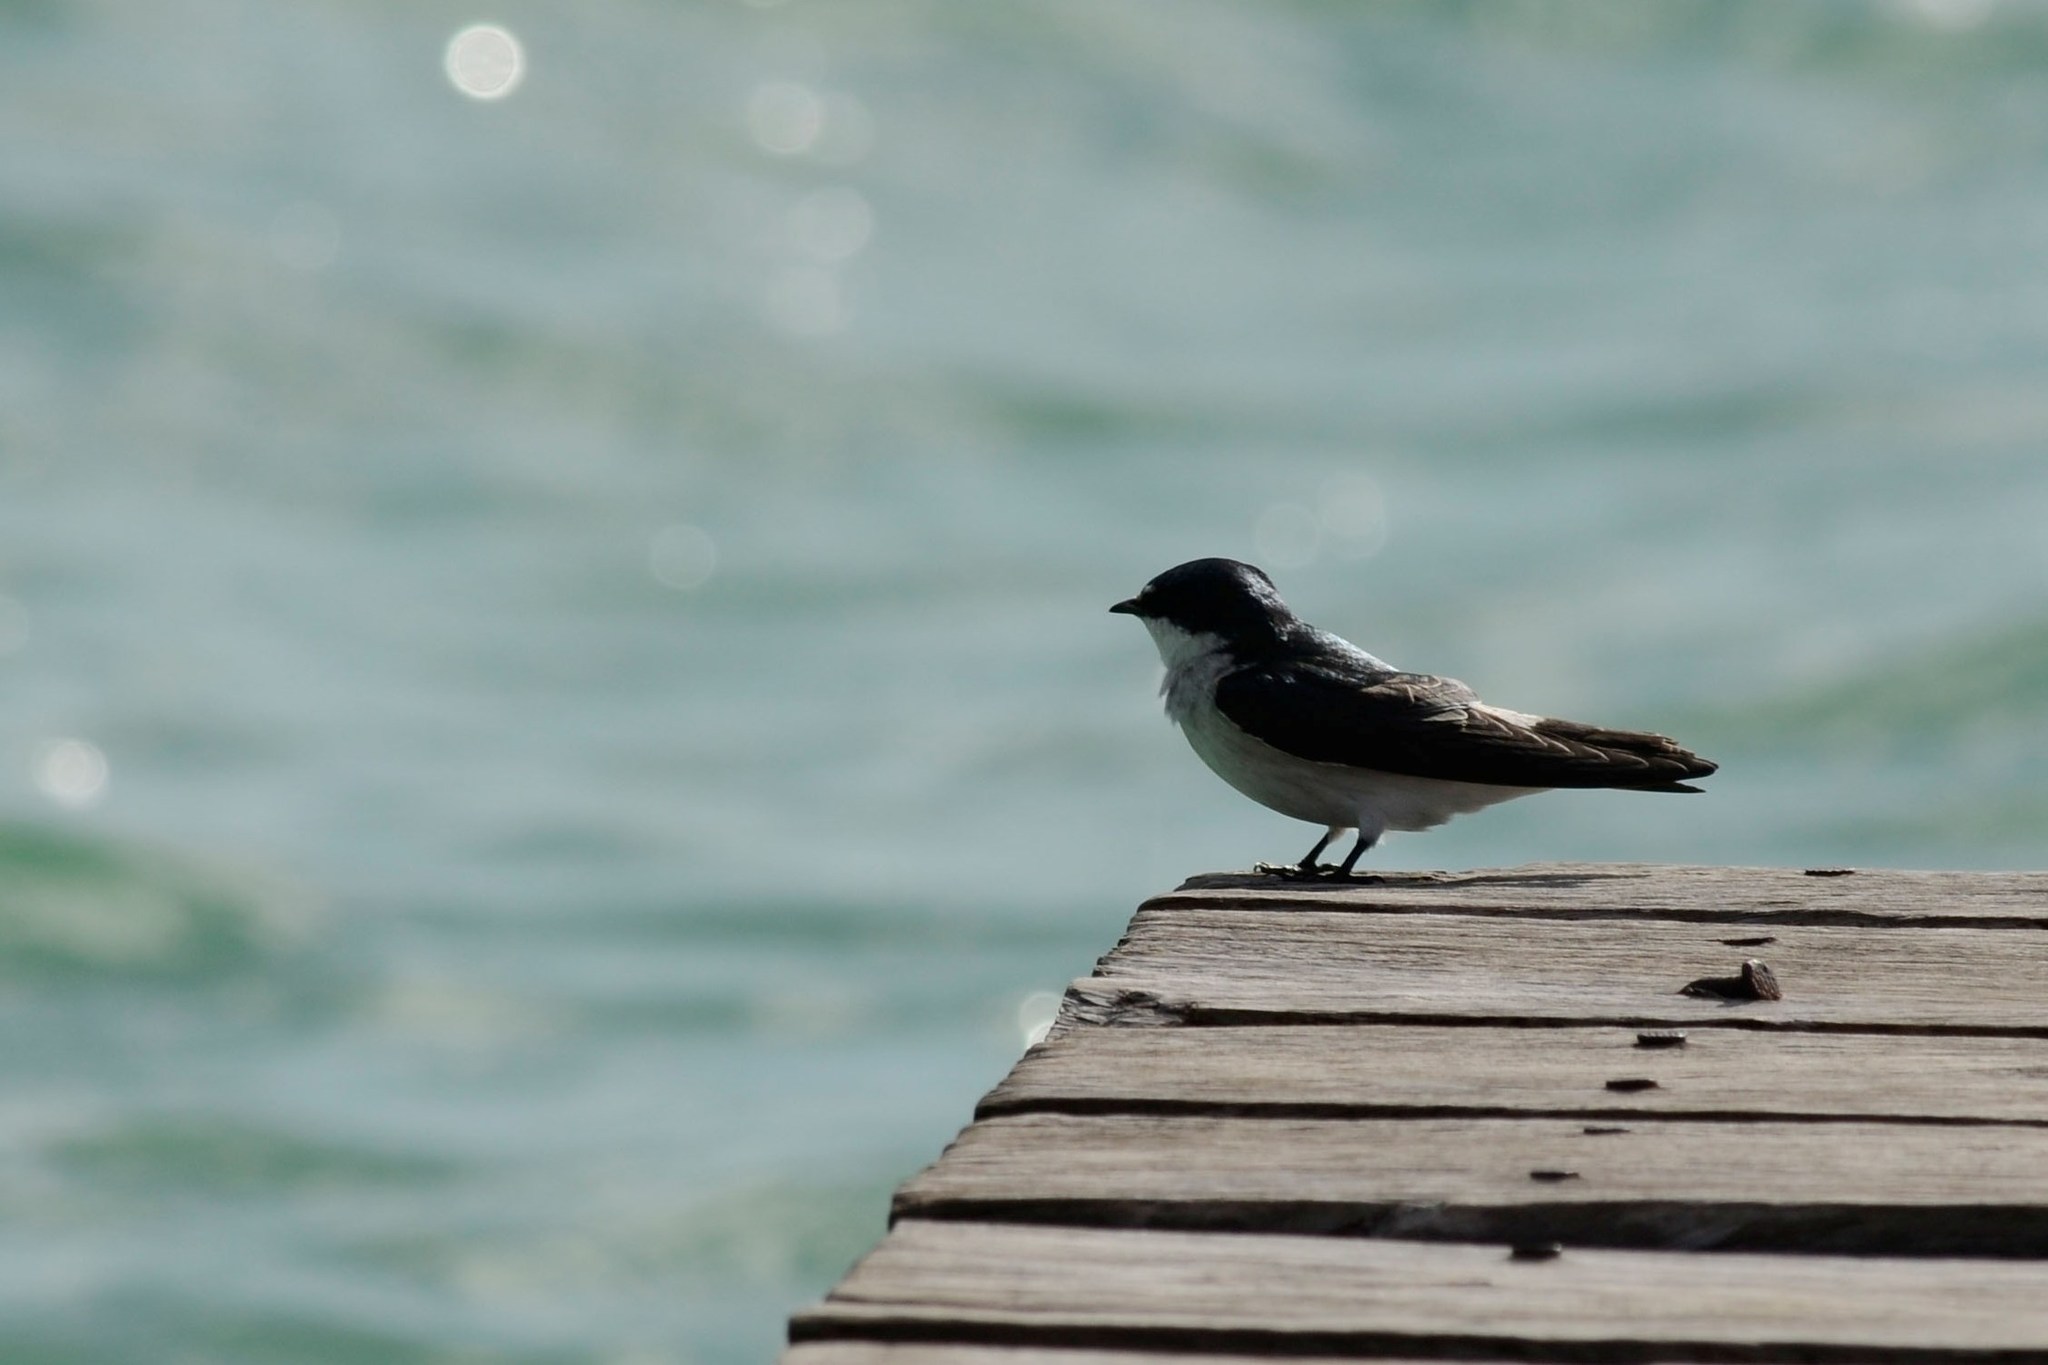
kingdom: Animalia
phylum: Chordata
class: Aves
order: Passeriformes
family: Hirundinidae
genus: Tachycineta
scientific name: Tachycineta albilinea
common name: Mangrove swallow
